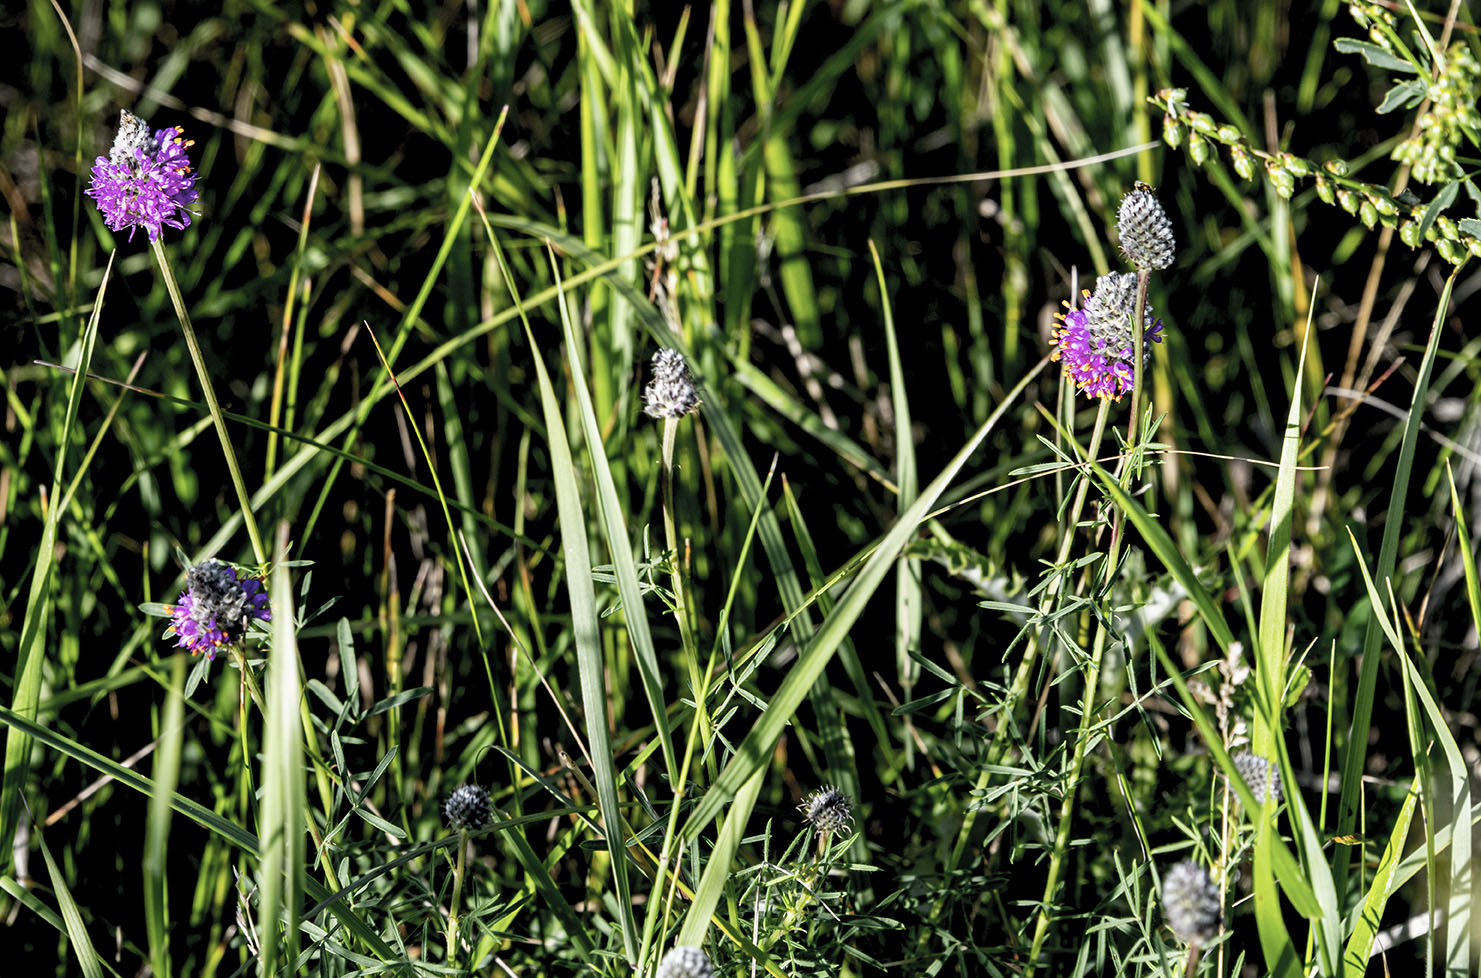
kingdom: Plantae
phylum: Tracheophyta
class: Magnoliopsida
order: Fabales
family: Fabaceae
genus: Dalea
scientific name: Dalea purpurea
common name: Purple prairie-clover
